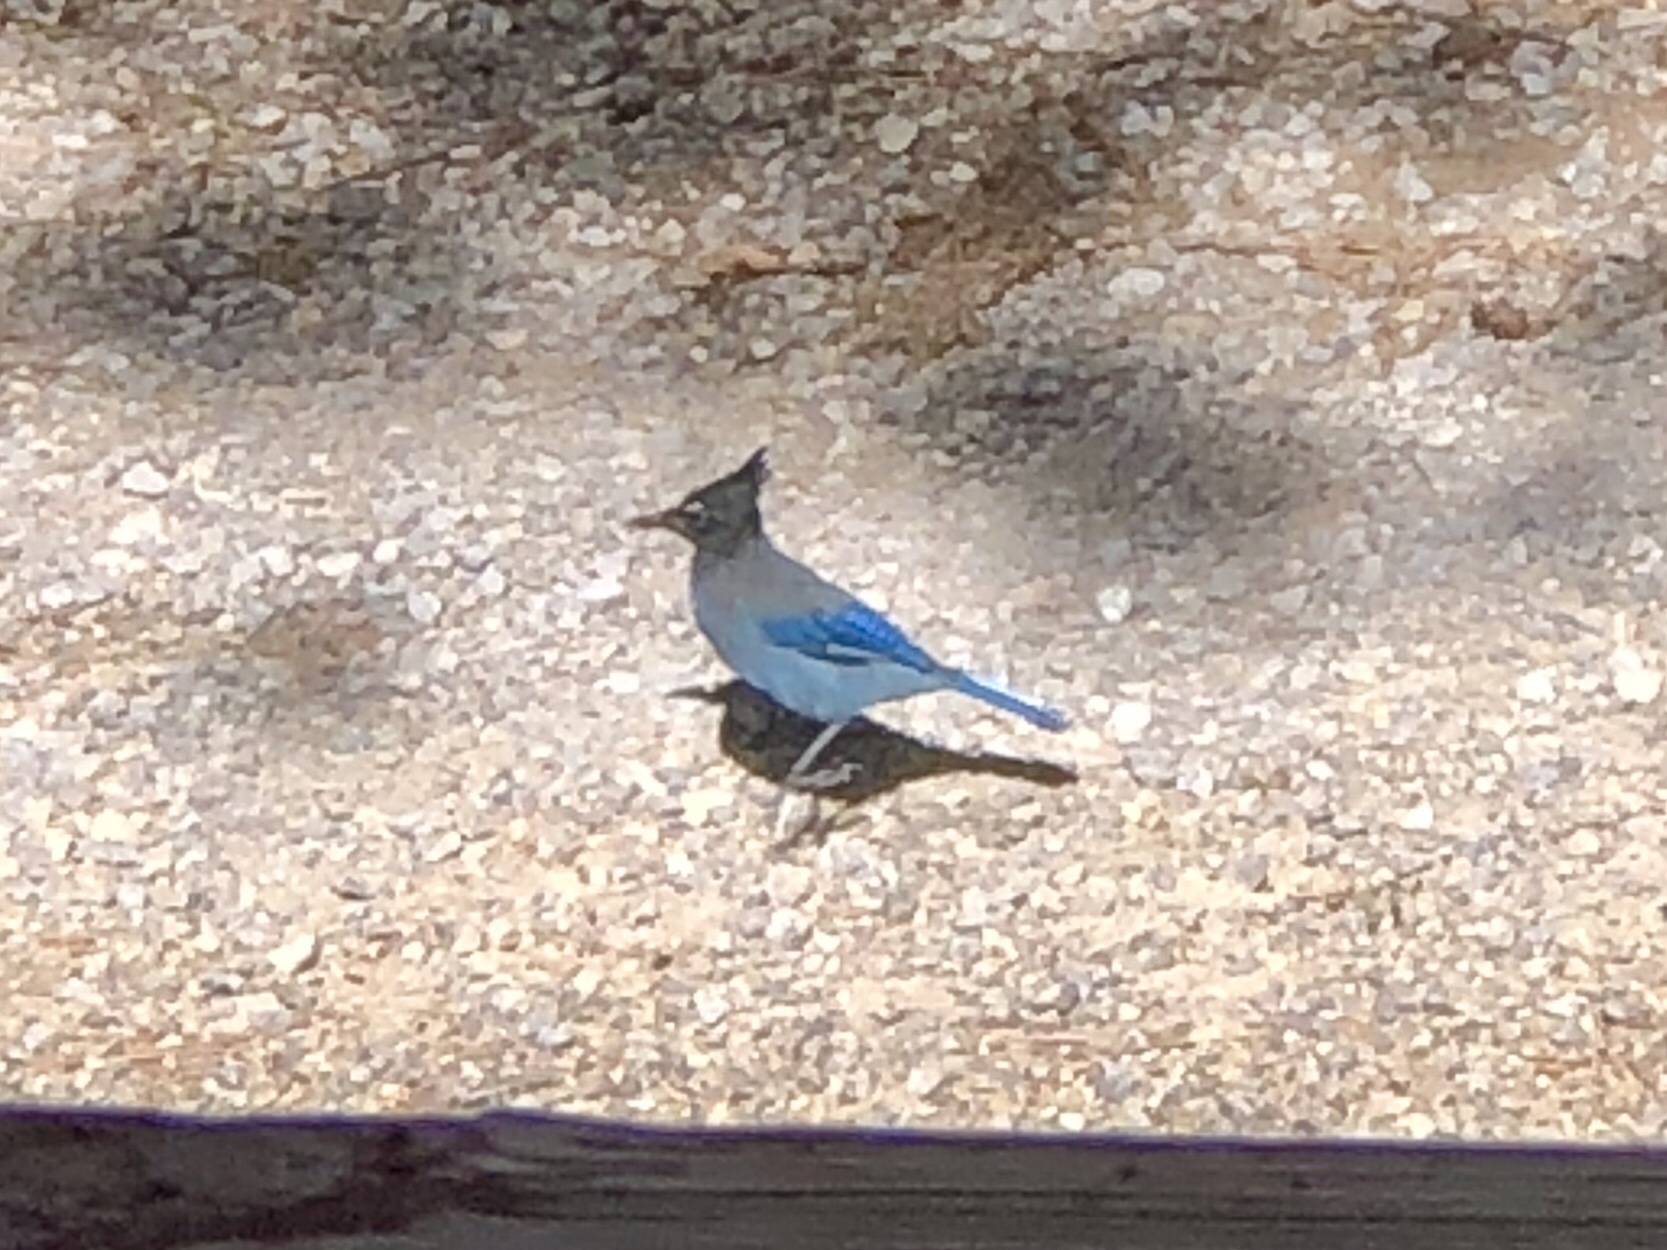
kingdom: Animalia
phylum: Chordata
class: Aves
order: Passeriformes
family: Corvidae
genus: Cyanocitta
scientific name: Cyanocitta stelleri
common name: Steller's jay
